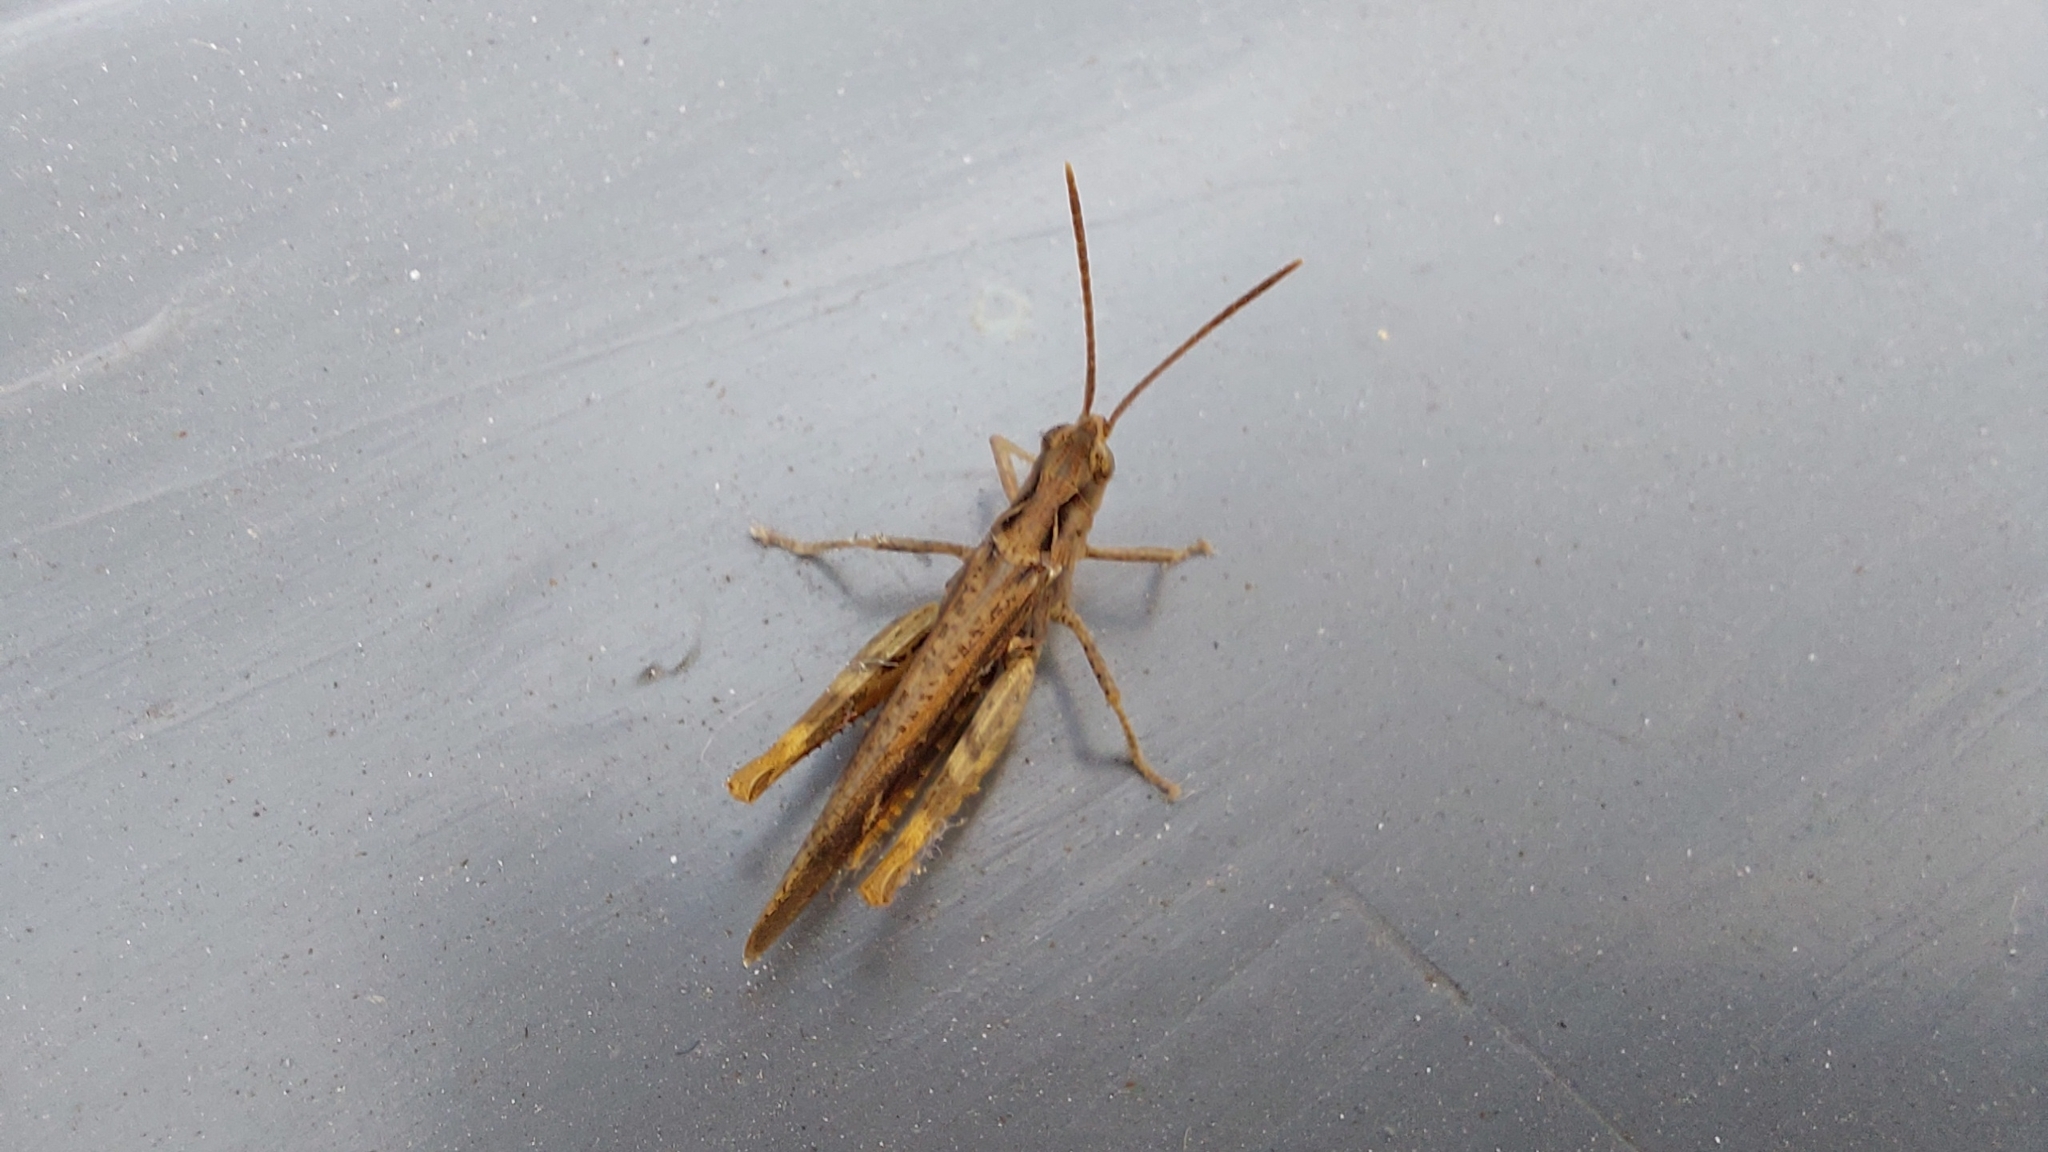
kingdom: Animalia
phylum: Arthropoda
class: Insecta
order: Orthoptera
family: Acrididae
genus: Chorthippus
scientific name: Chorthippus brunneus
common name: Field grasshopper
